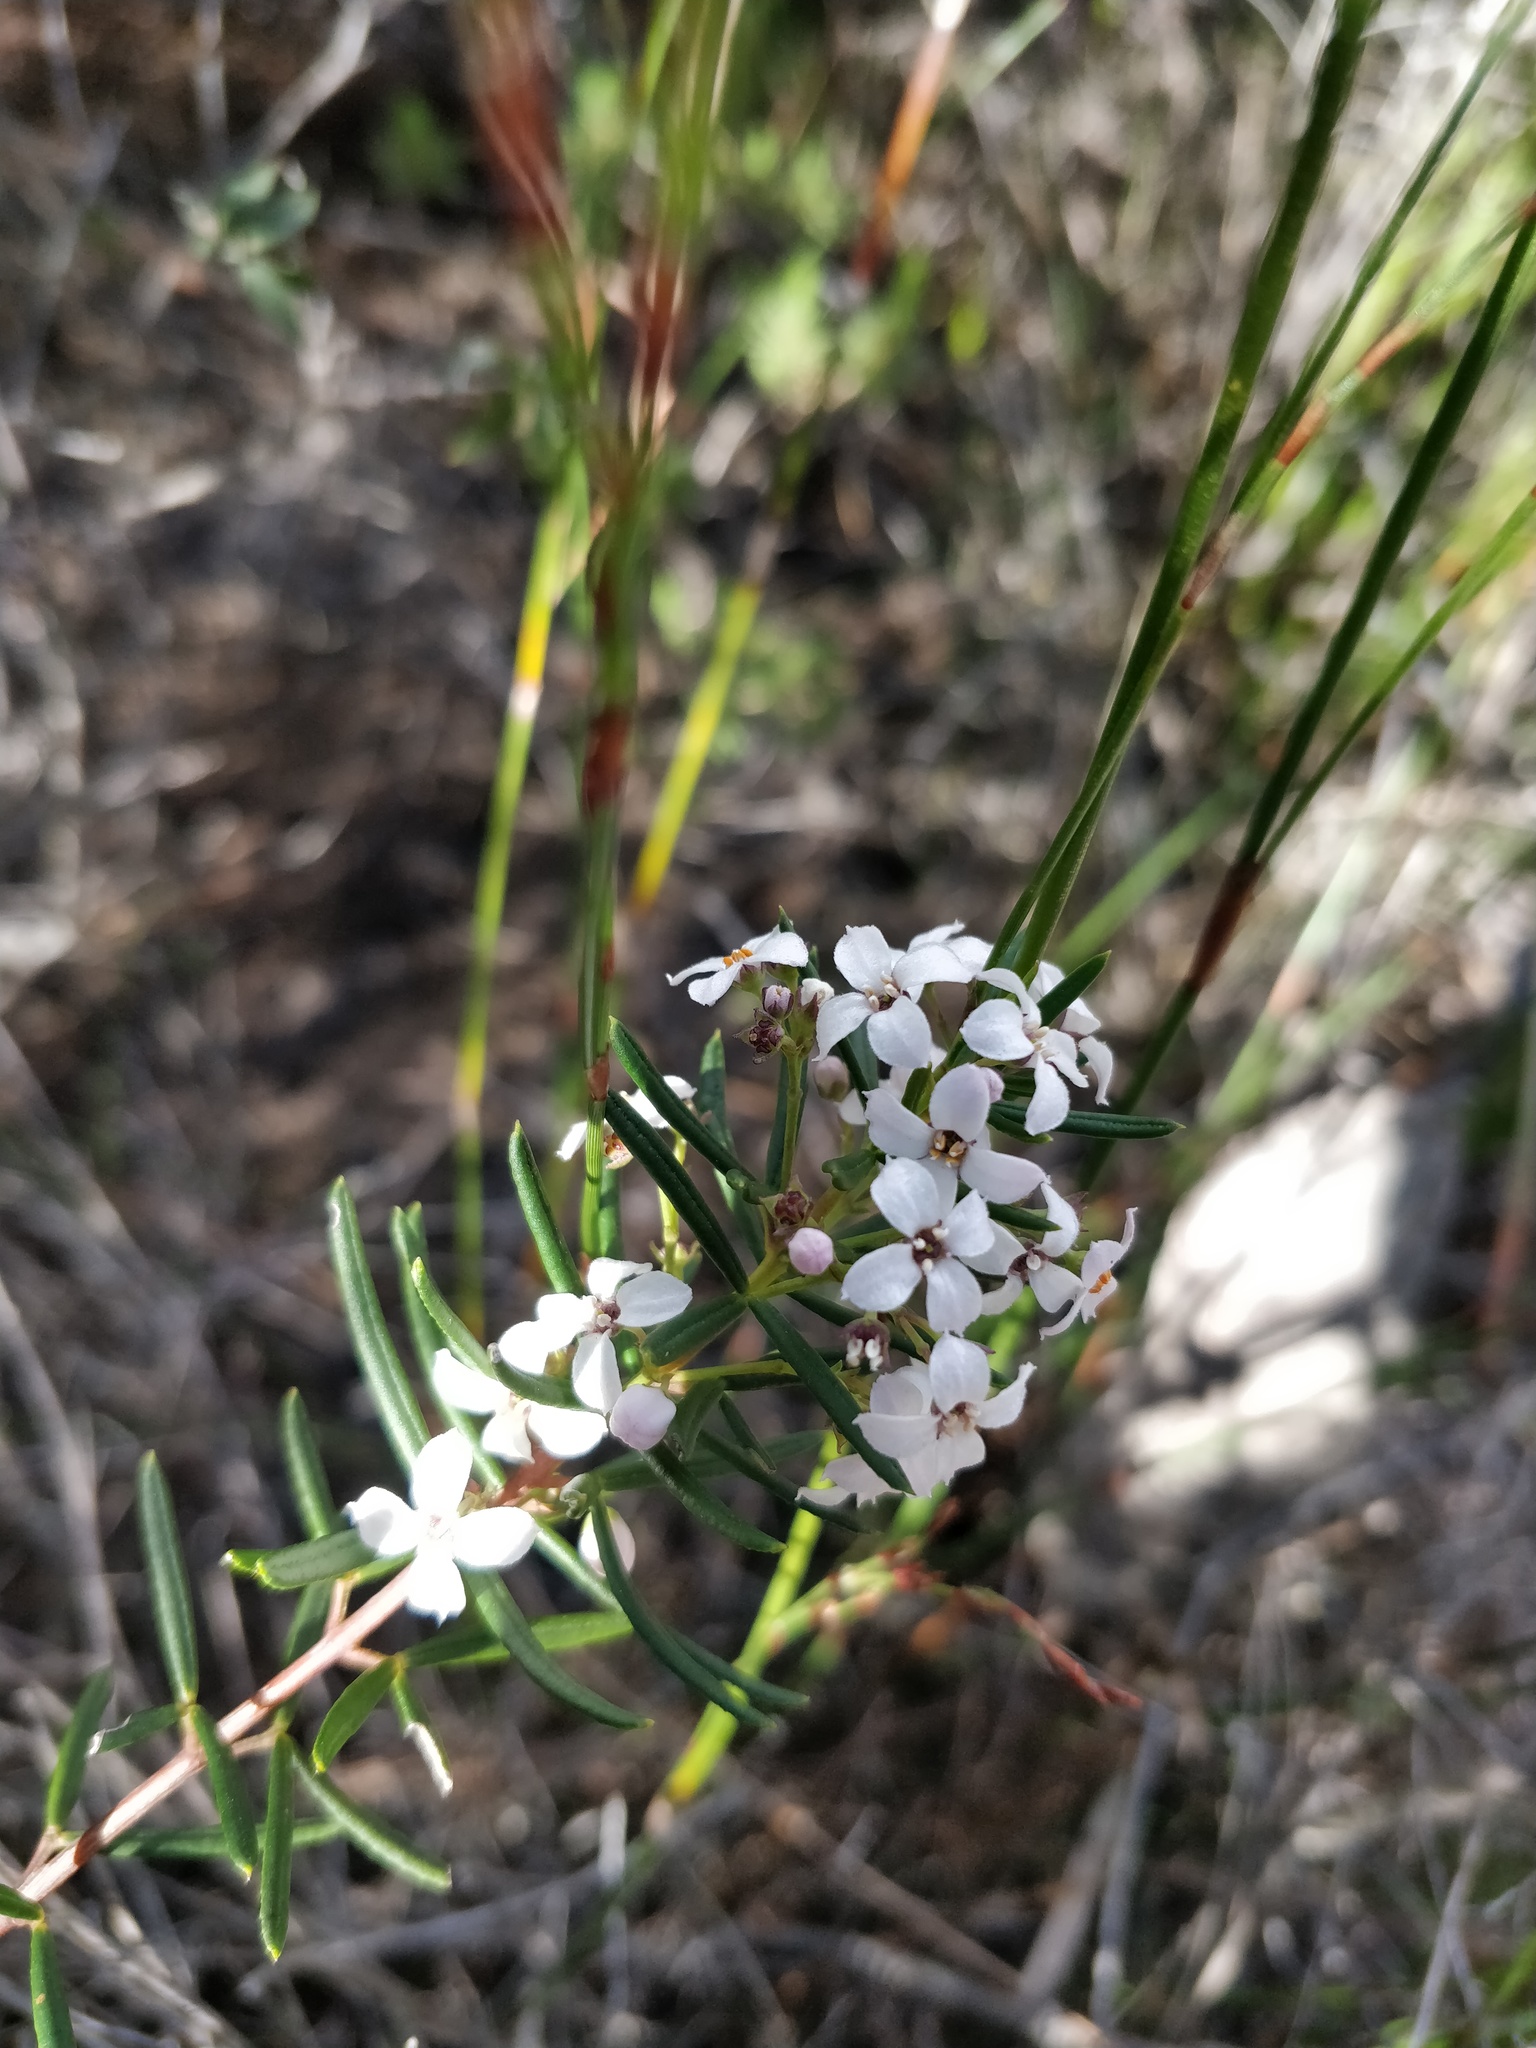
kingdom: Plantae
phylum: Tracheophyta
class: Magnoliopsida
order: Sapindales
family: Rutaceae
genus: Zieria
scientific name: Zieria laevigata
